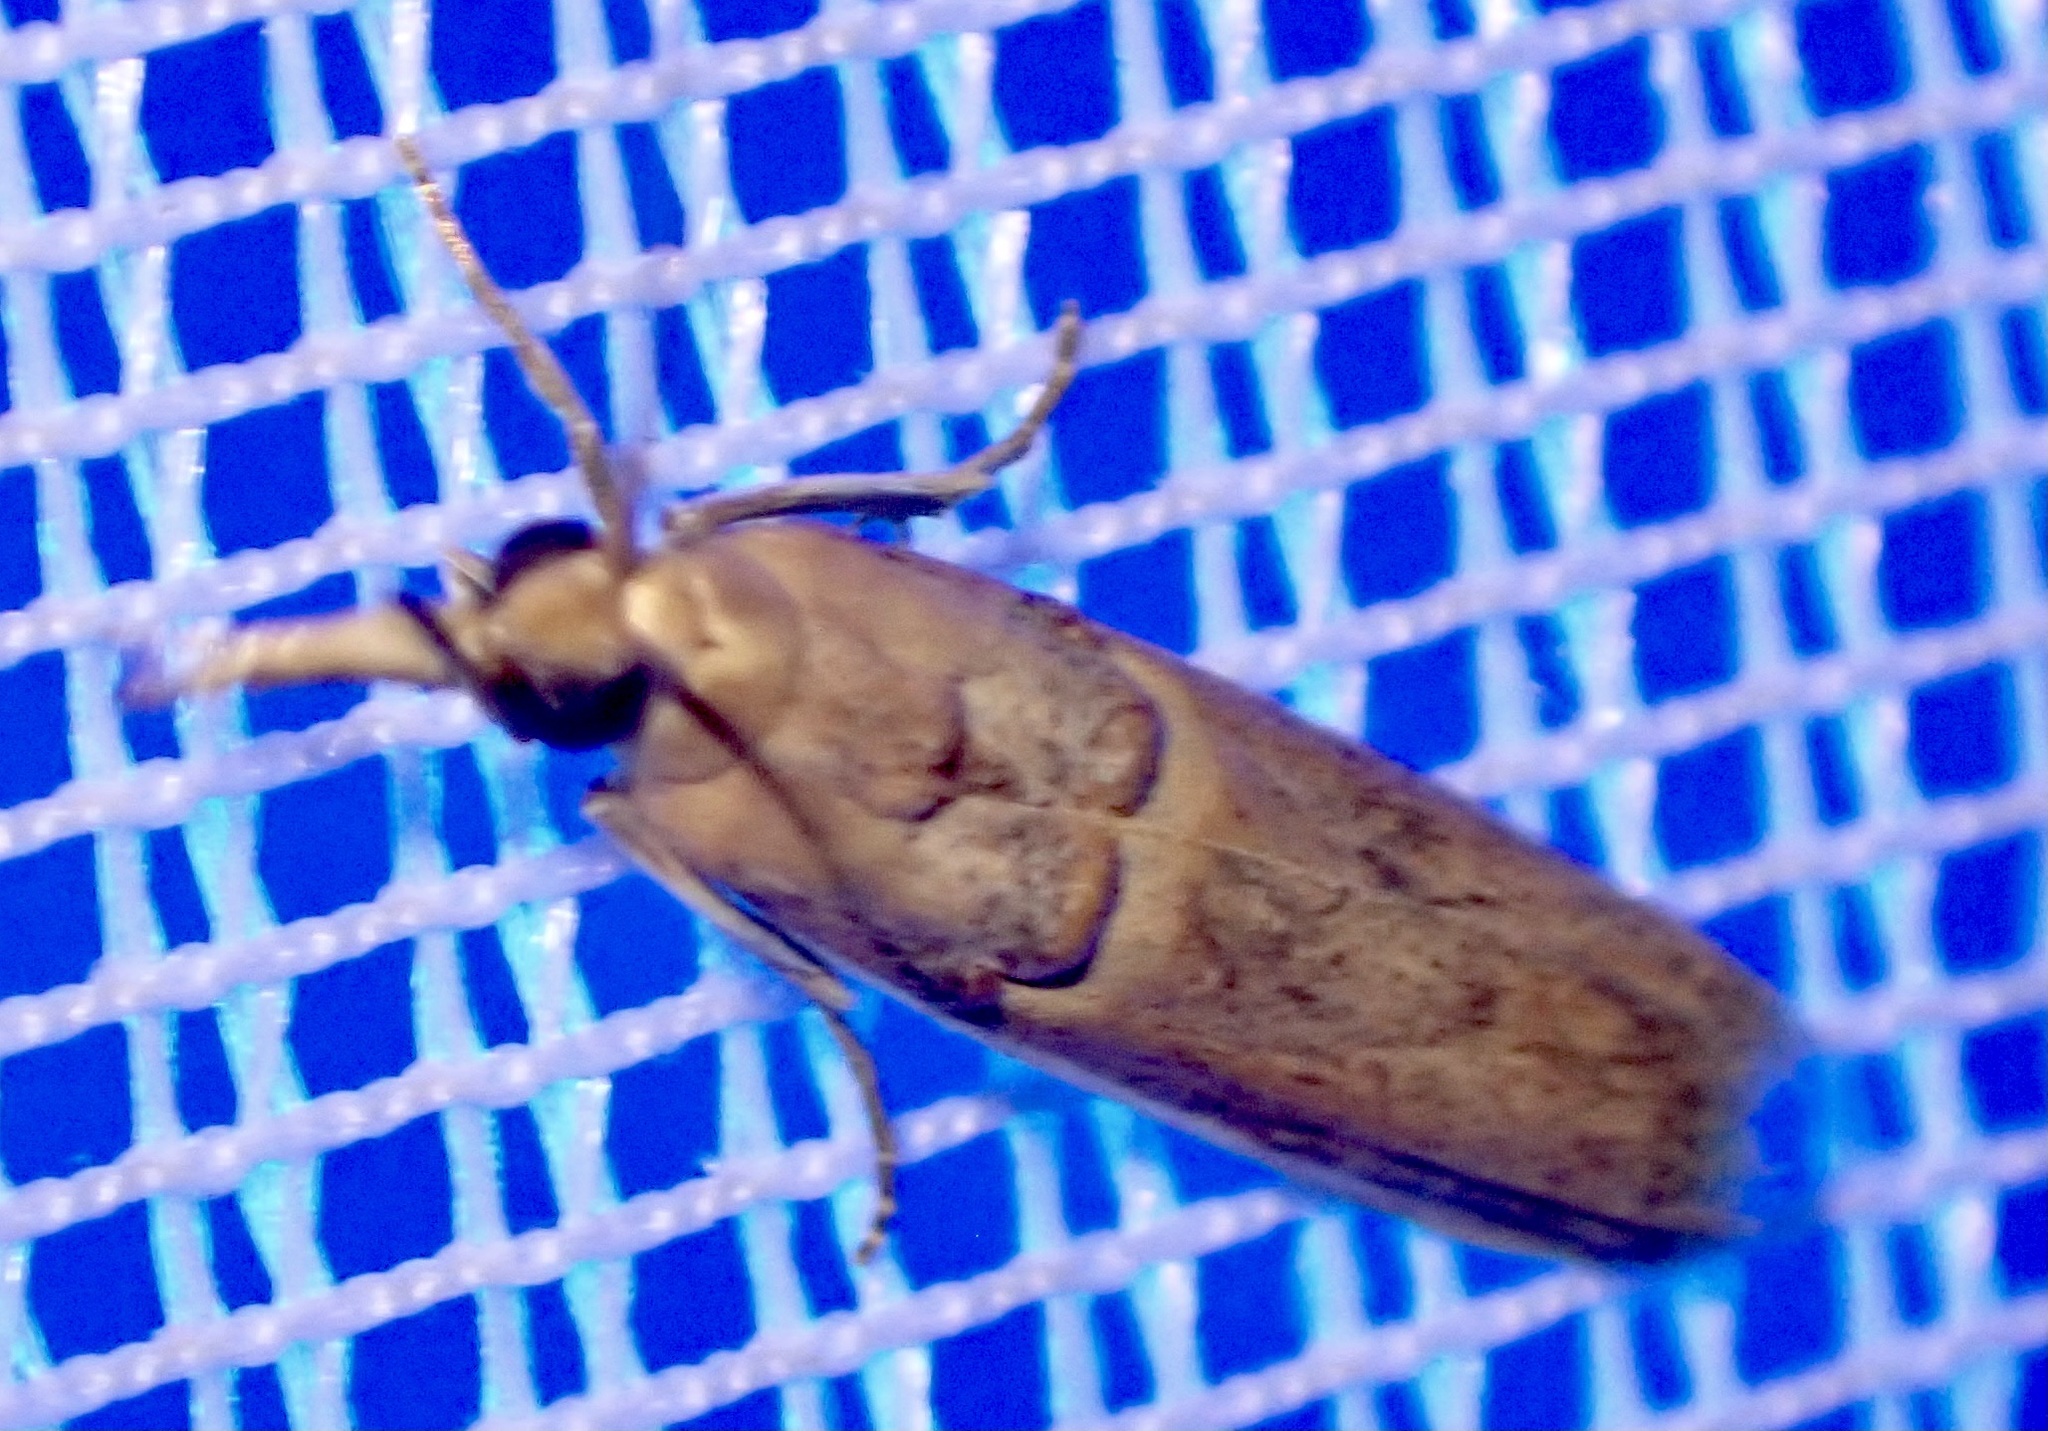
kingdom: Animalia
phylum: Arthropoda
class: Insecta
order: Lepidoptera
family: Pyralidae
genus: Etiella
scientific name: Etiella zinckenella
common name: Gold-banded etiella moth
